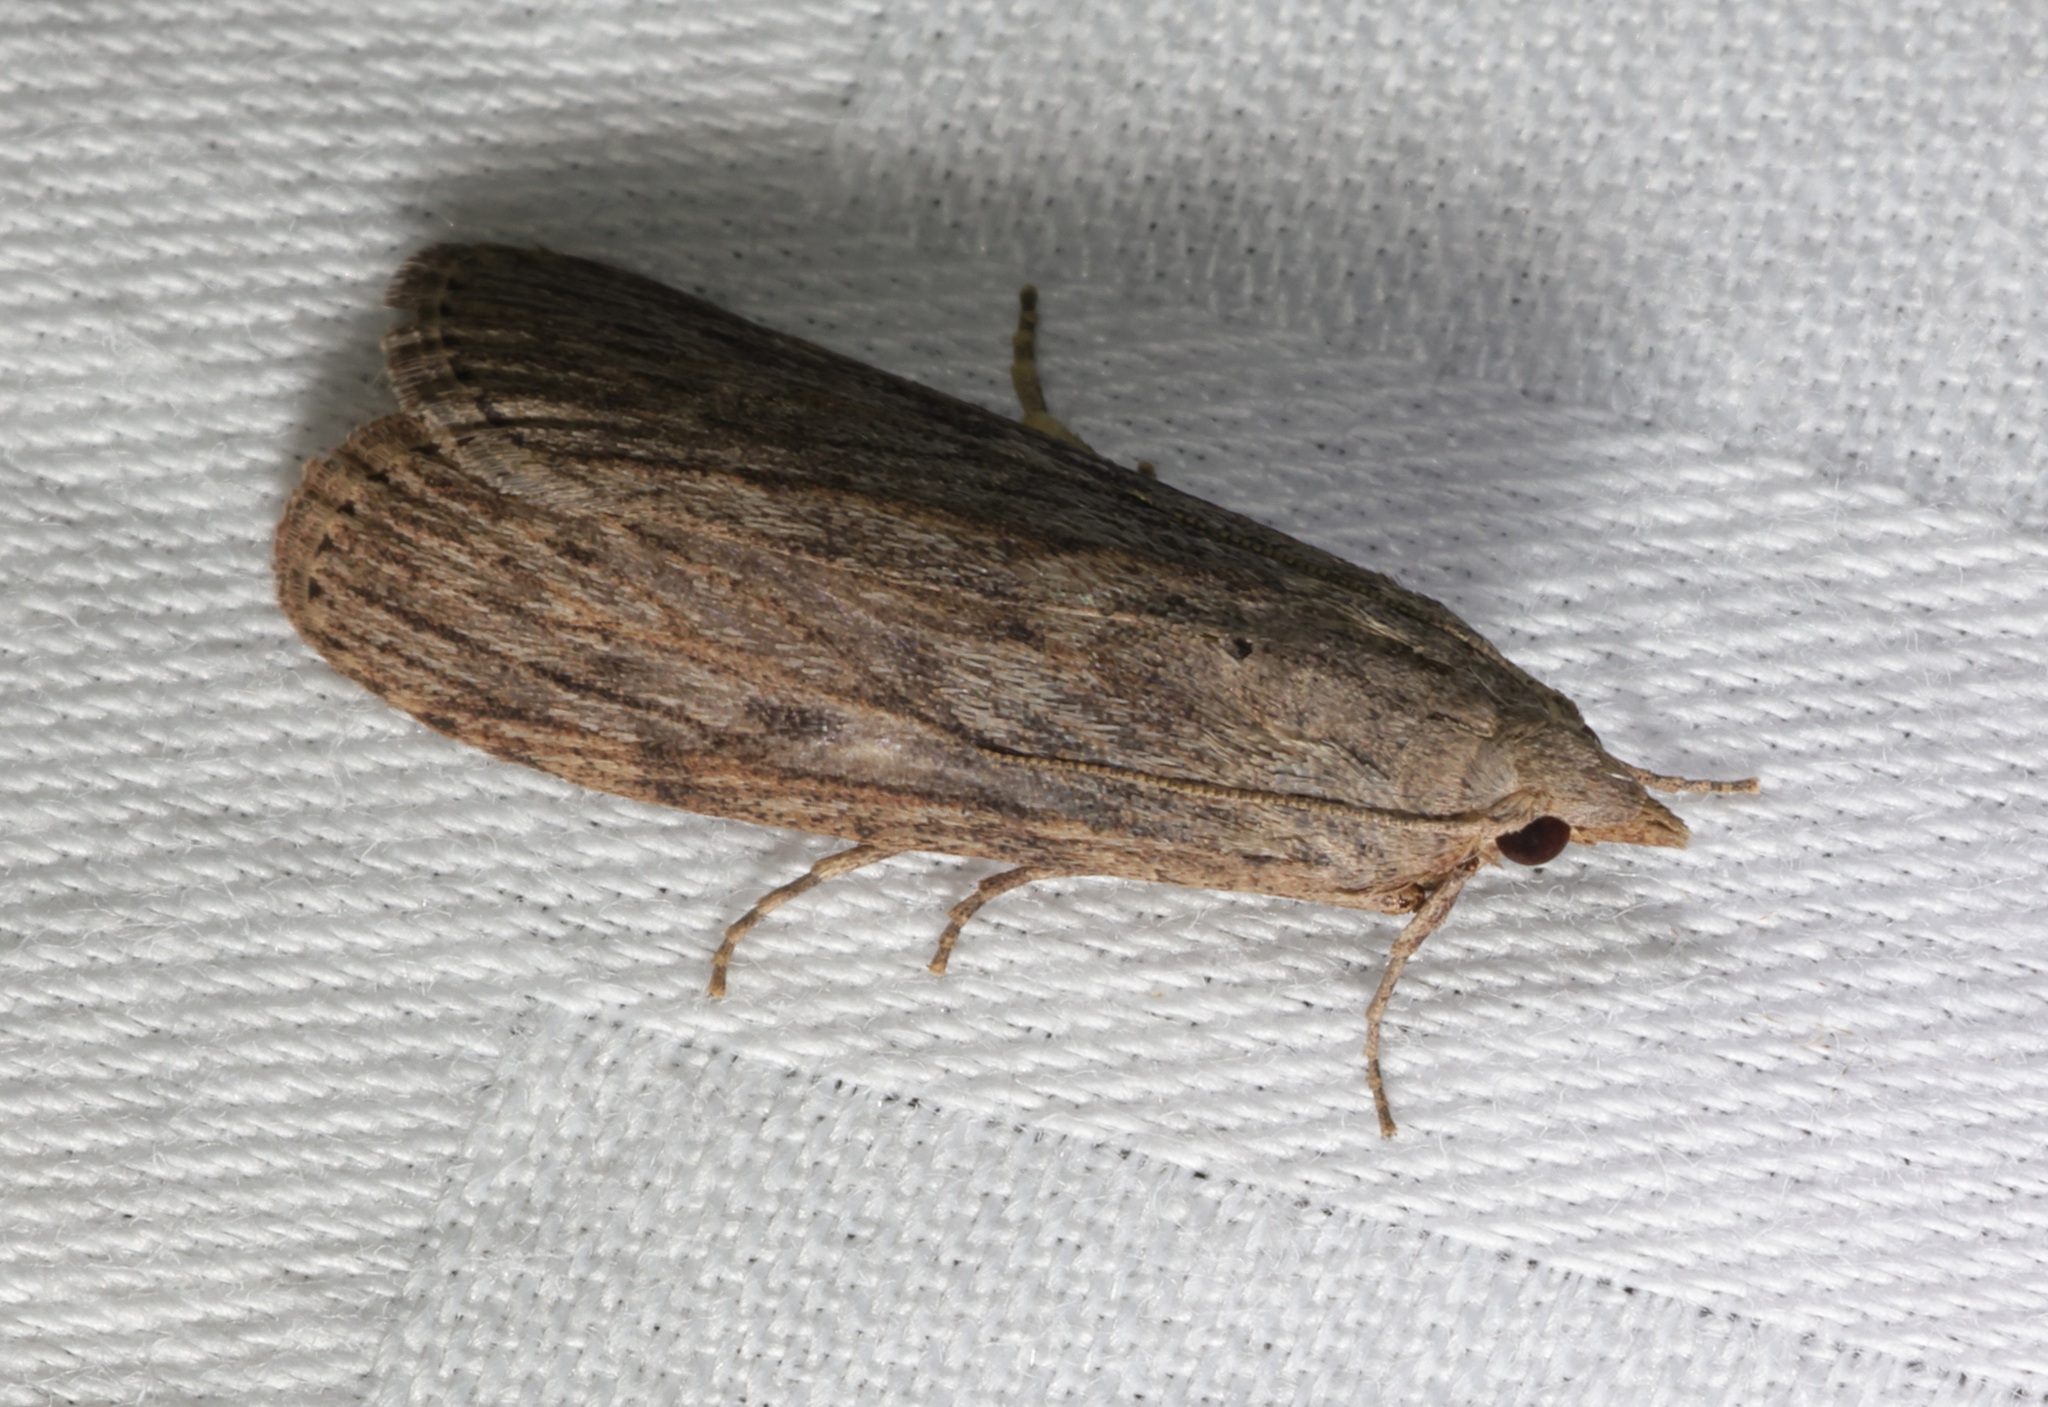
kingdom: Animalia
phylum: Arthropoda
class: Insecta
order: Lepidoptera
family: Pyralidae
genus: Lamoria
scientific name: Lamoria adaptella
